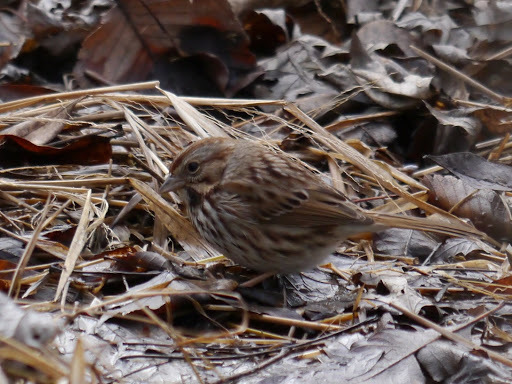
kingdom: Animalia
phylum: Chordata
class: Aves
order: Passeriformes
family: Passerellidae
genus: Melospiza
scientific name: Melospiza melodia
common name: Song sparrow
